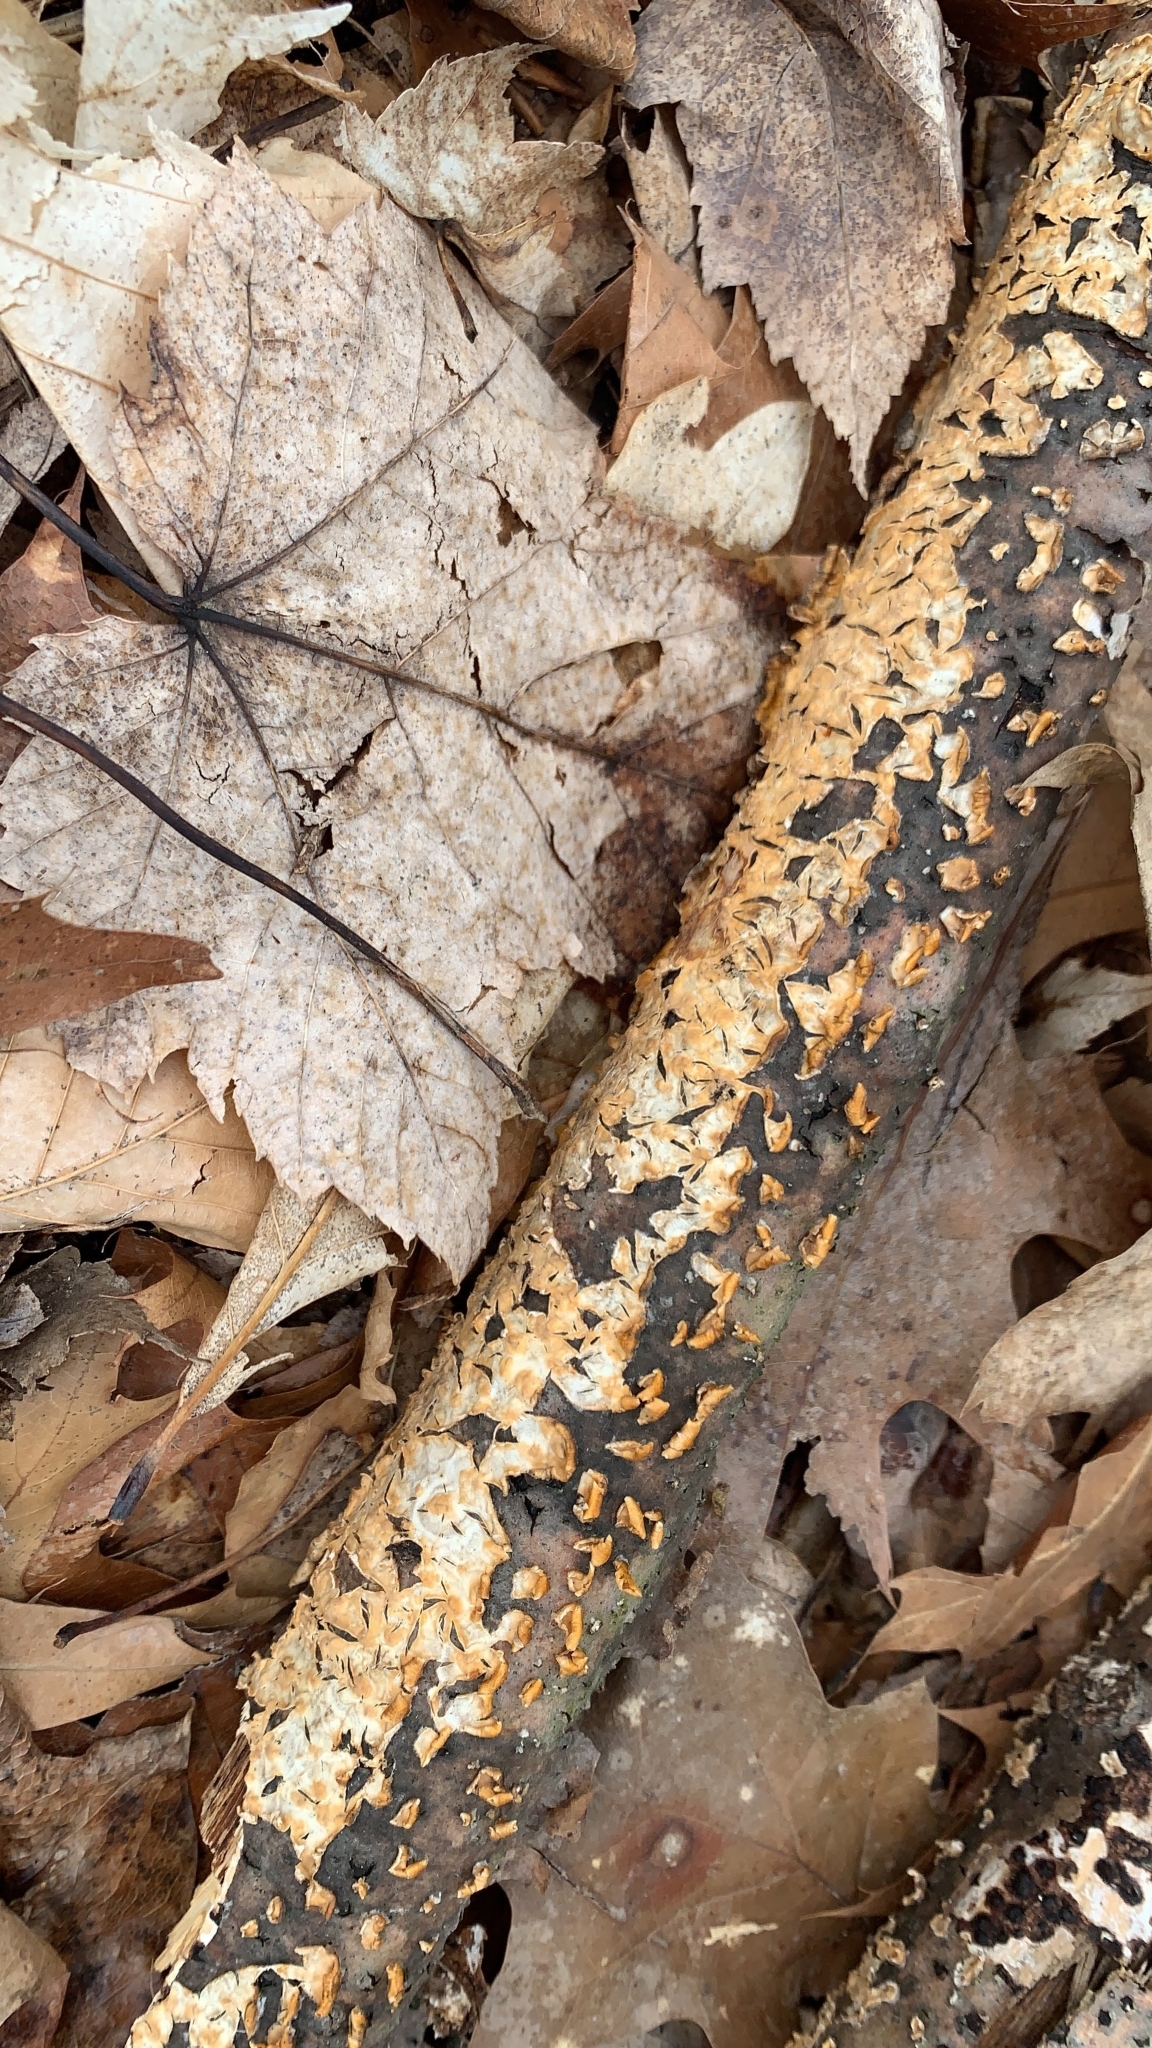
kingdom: Fungi
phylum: Basidiomycota
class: Agaricomycetes
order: Russulales
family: Stereaceae
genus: Stereum
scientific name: Stereum complicatum
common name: Crowded parchment
